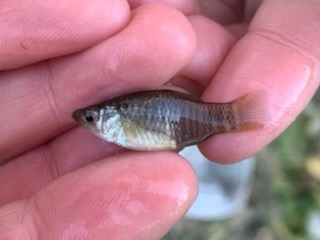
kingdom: Animalia
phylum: Chordata
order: Cyprinodontiformes
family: Fundulidae
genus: Fundulus
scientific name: Fundulus xenicus
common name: Diamond killifish
